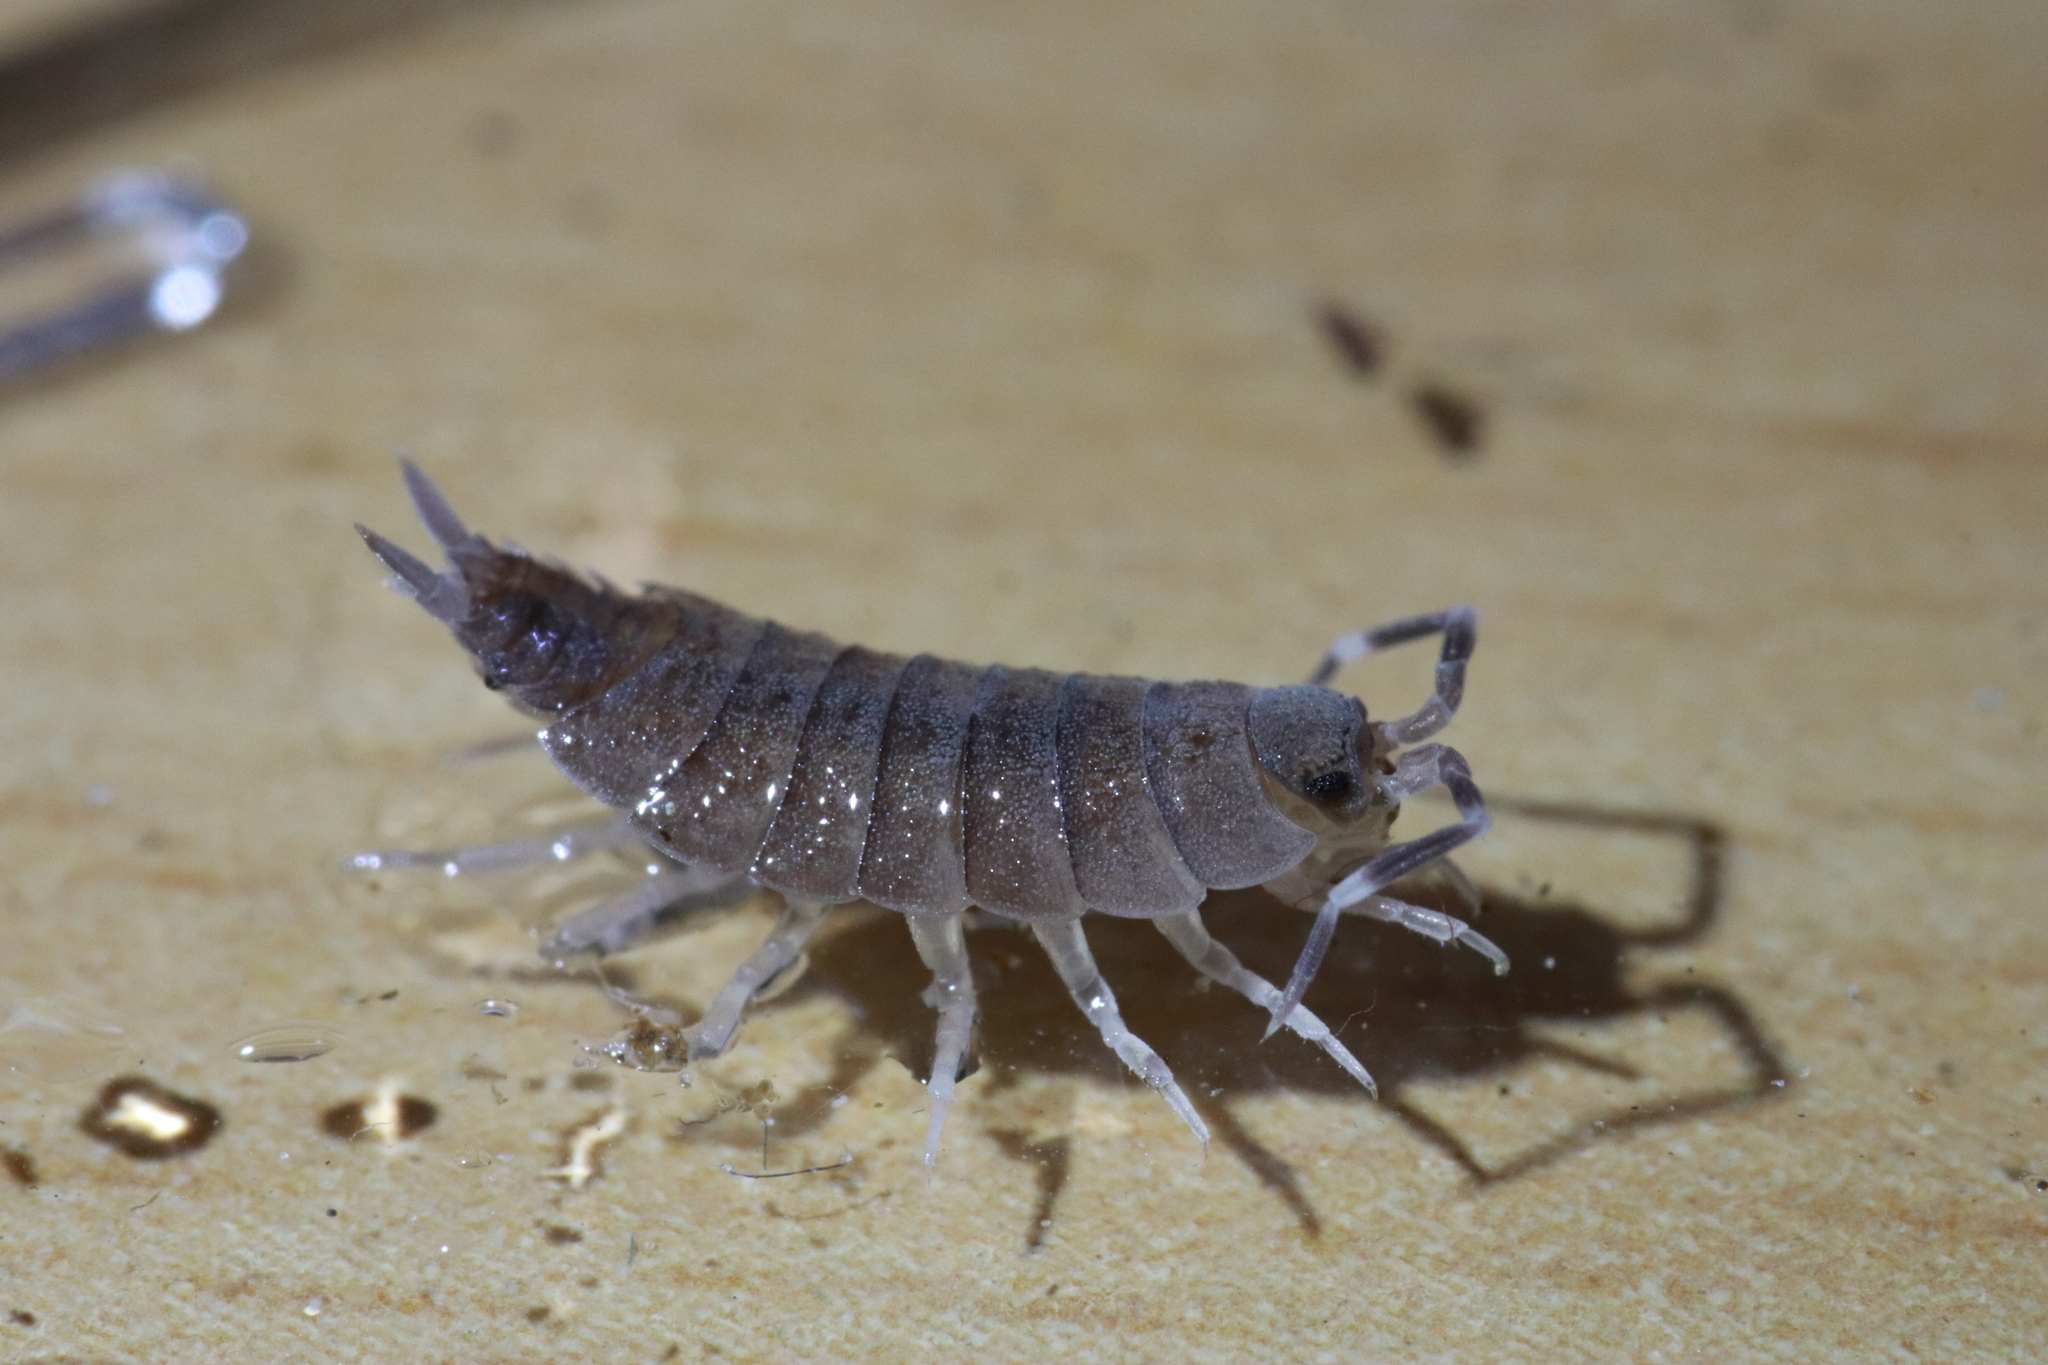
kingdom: Animalia
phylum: Arthropoda
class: Malacostraca
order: Isopoda
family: Porcellionidae
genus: Porcellionides
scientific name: Porcellionides pruinosus
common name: Plum woodlouse
